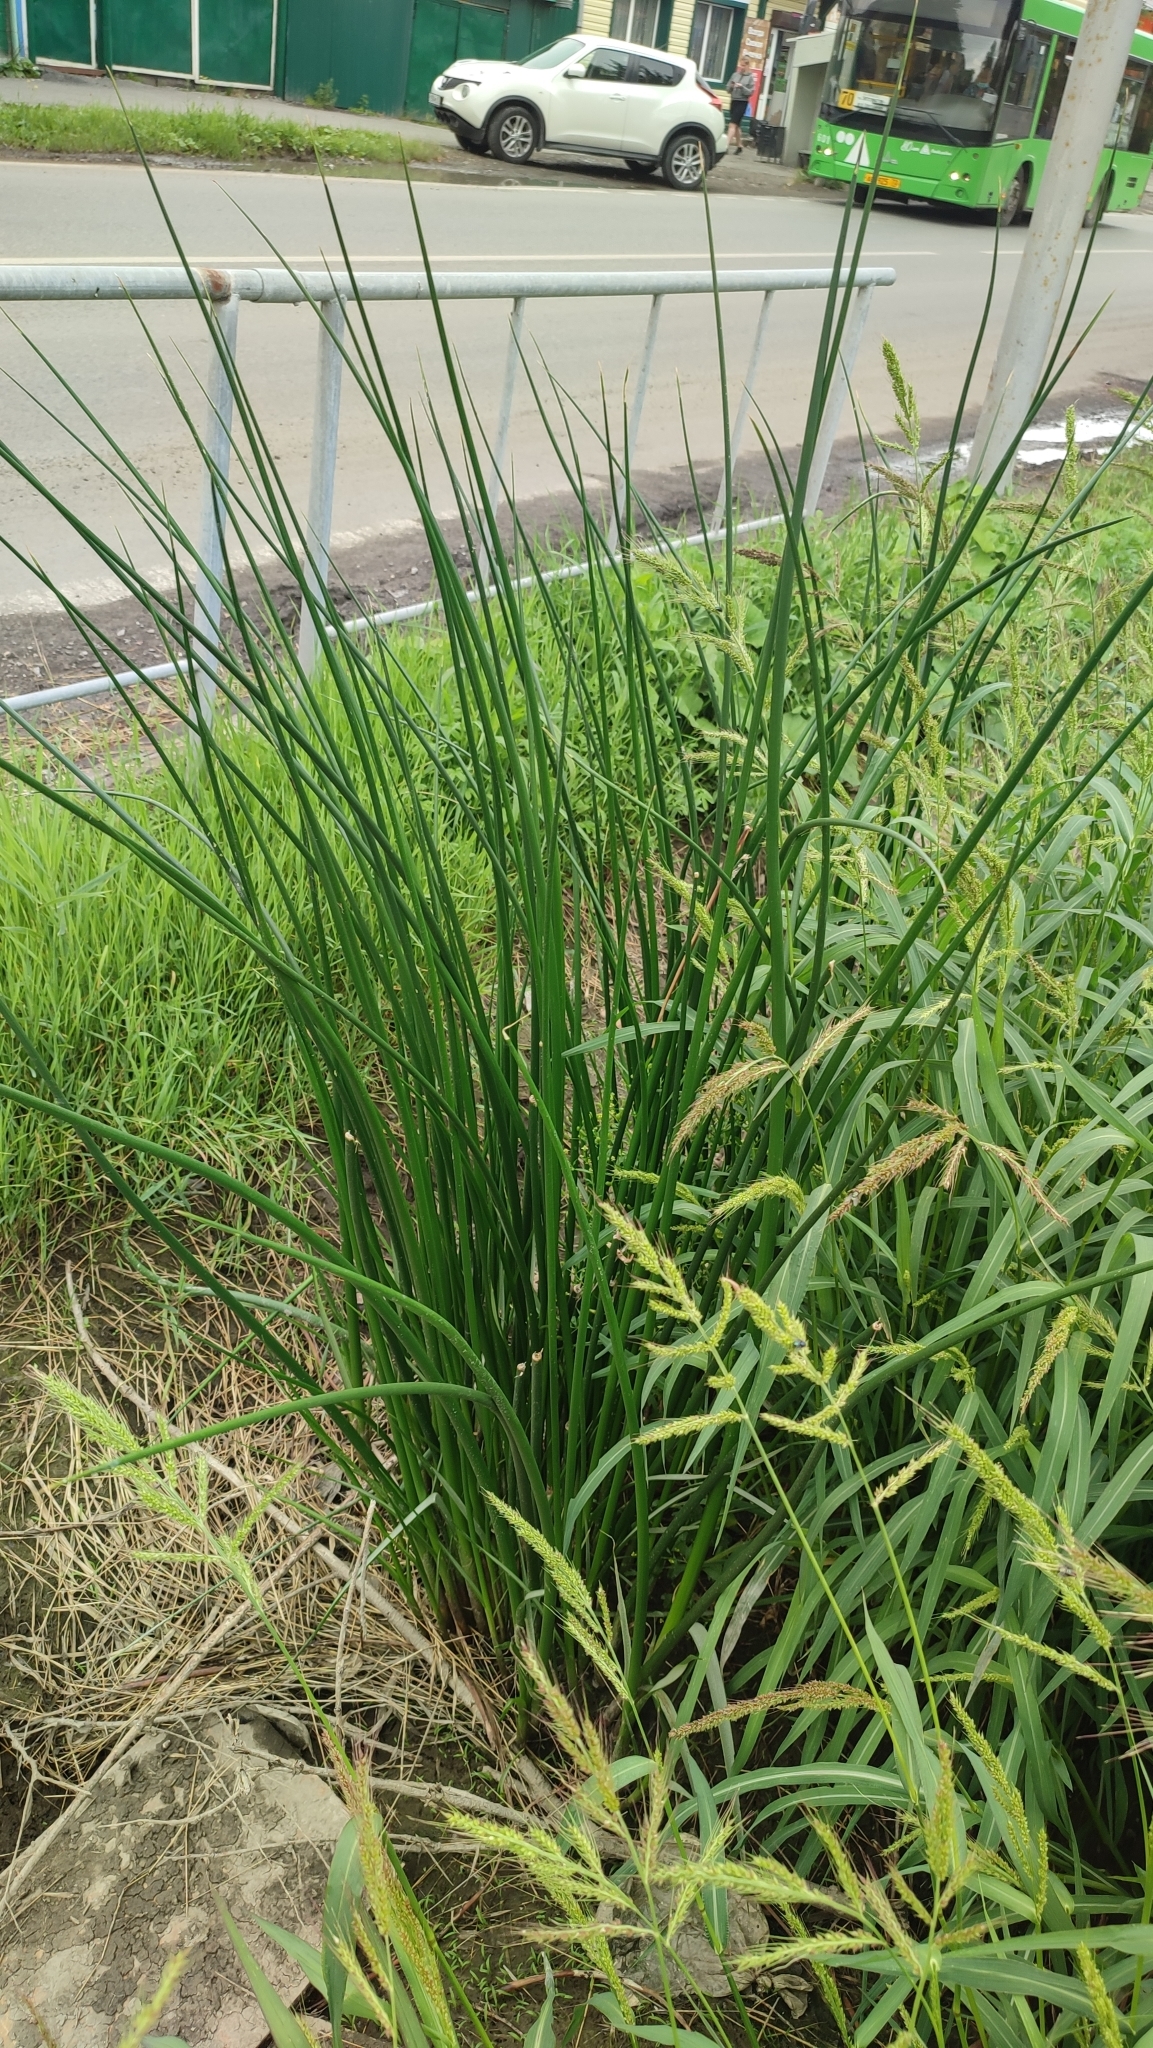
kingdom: Plantae
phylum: Tracheophyta
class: Liliopsida
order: Poales
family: Cyperaceae
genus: Schoenoplectus
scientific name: Schoenoplectus lacustris
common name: Common club-rush
